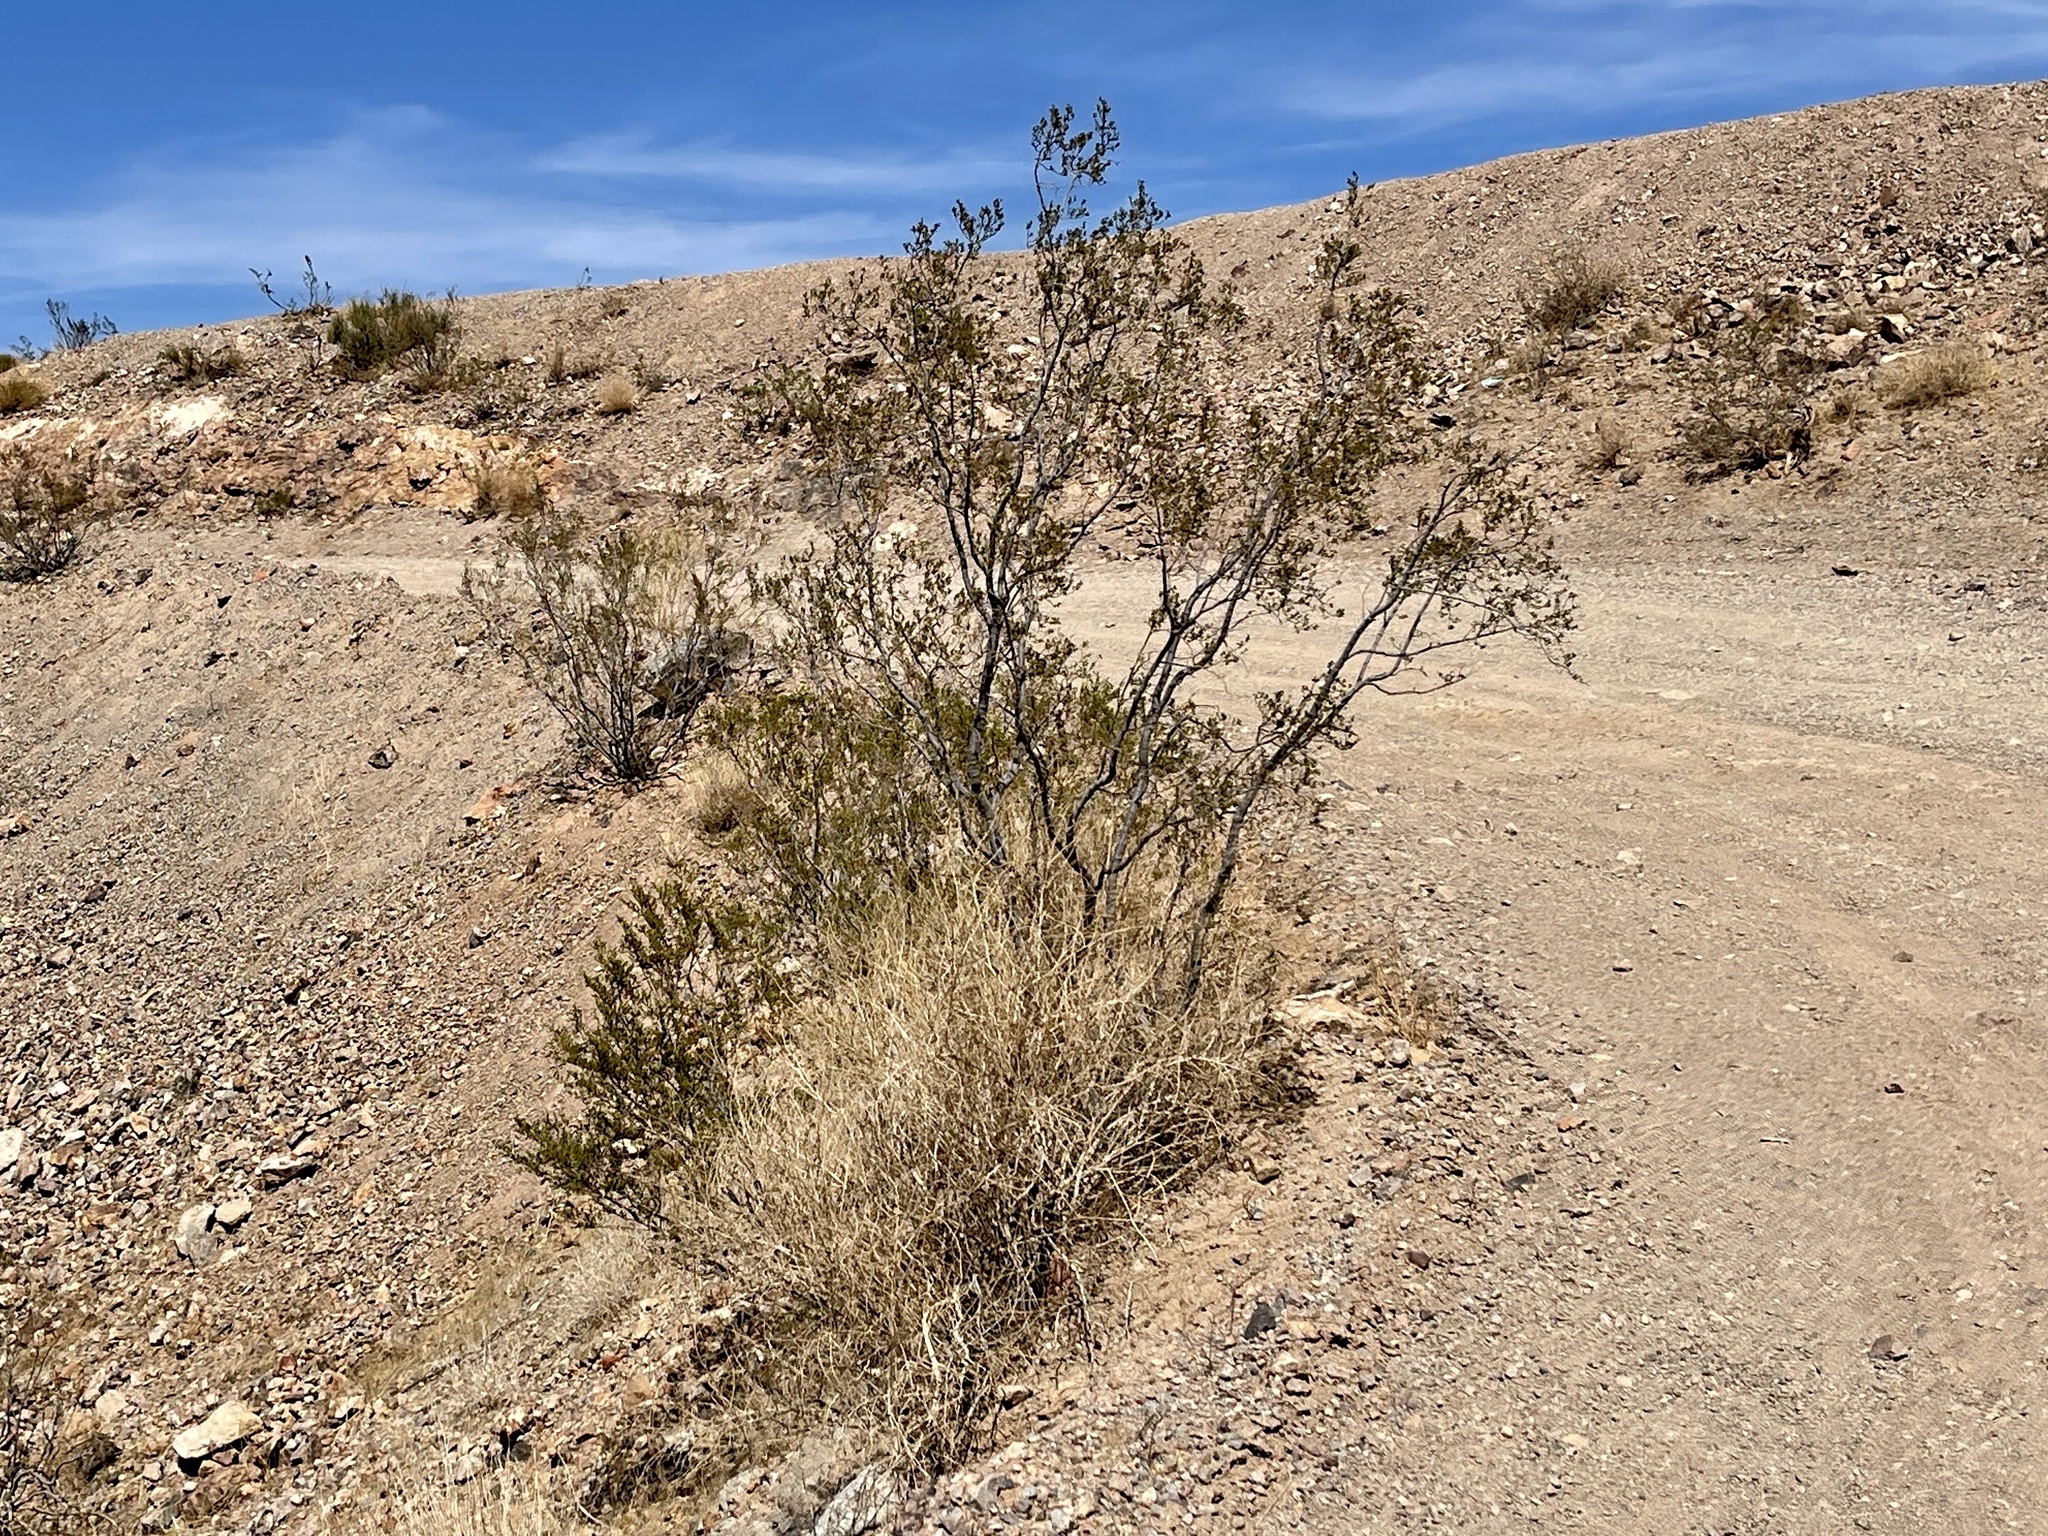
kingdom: Plantae
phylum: Tracheophyta
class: Magnoliopsida
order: Zygophyllales
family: Zygophyllaceae
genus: Larrea
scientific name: Larrea tridentata
